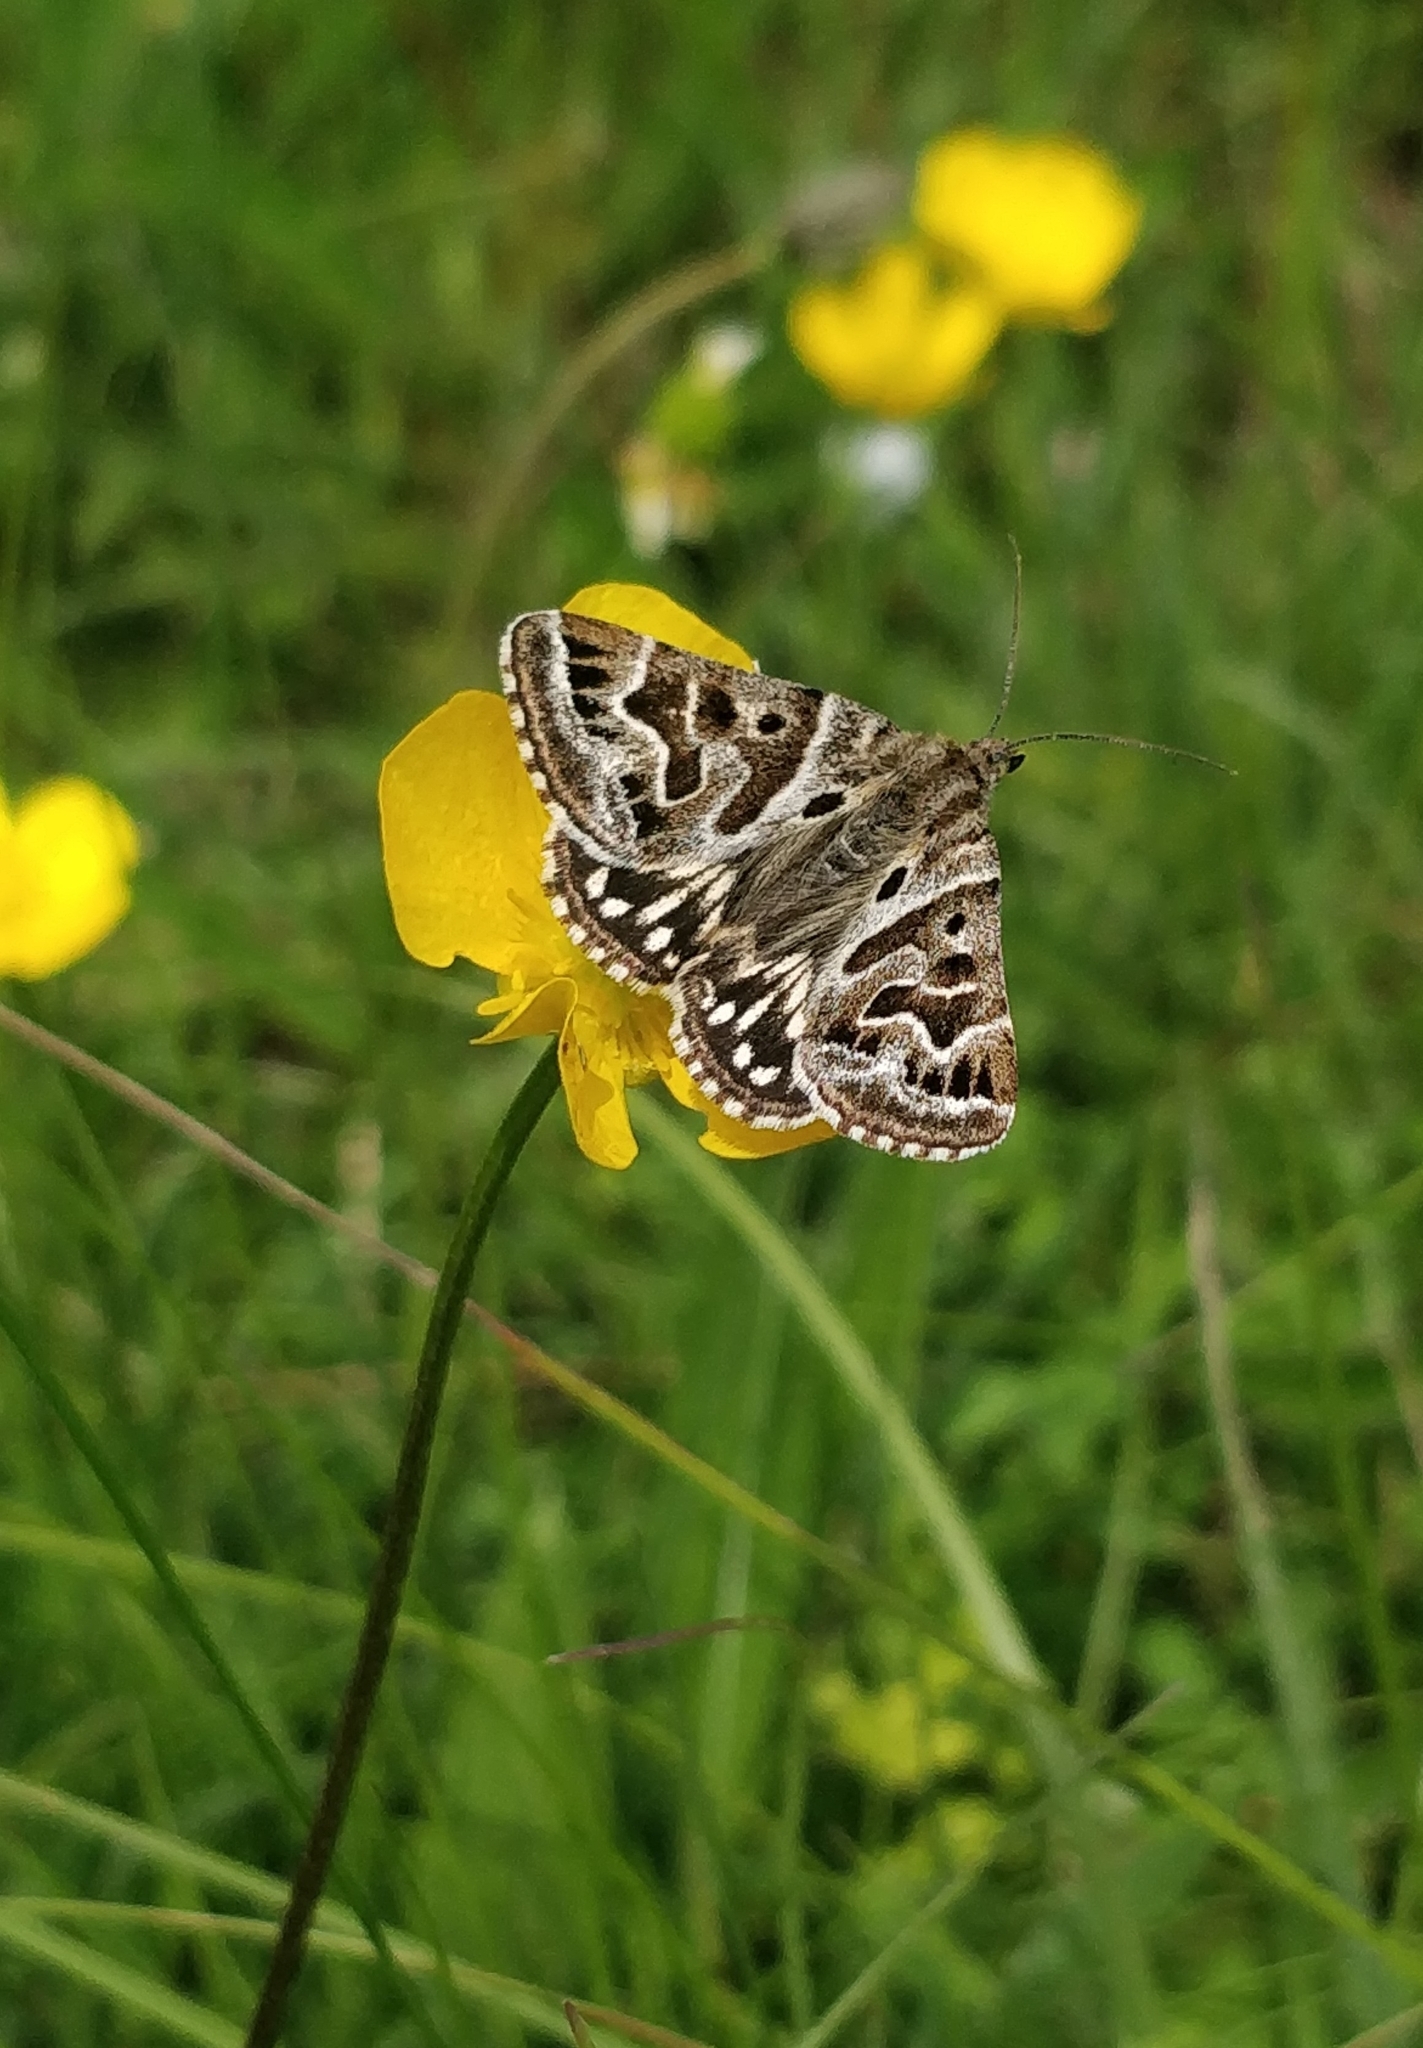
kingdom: Animalia
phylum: Arthropoda
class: Insecta
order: Lepidoptera
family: Erebidae
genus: Callistege
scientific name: Callistege mi
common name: Mother shipton
